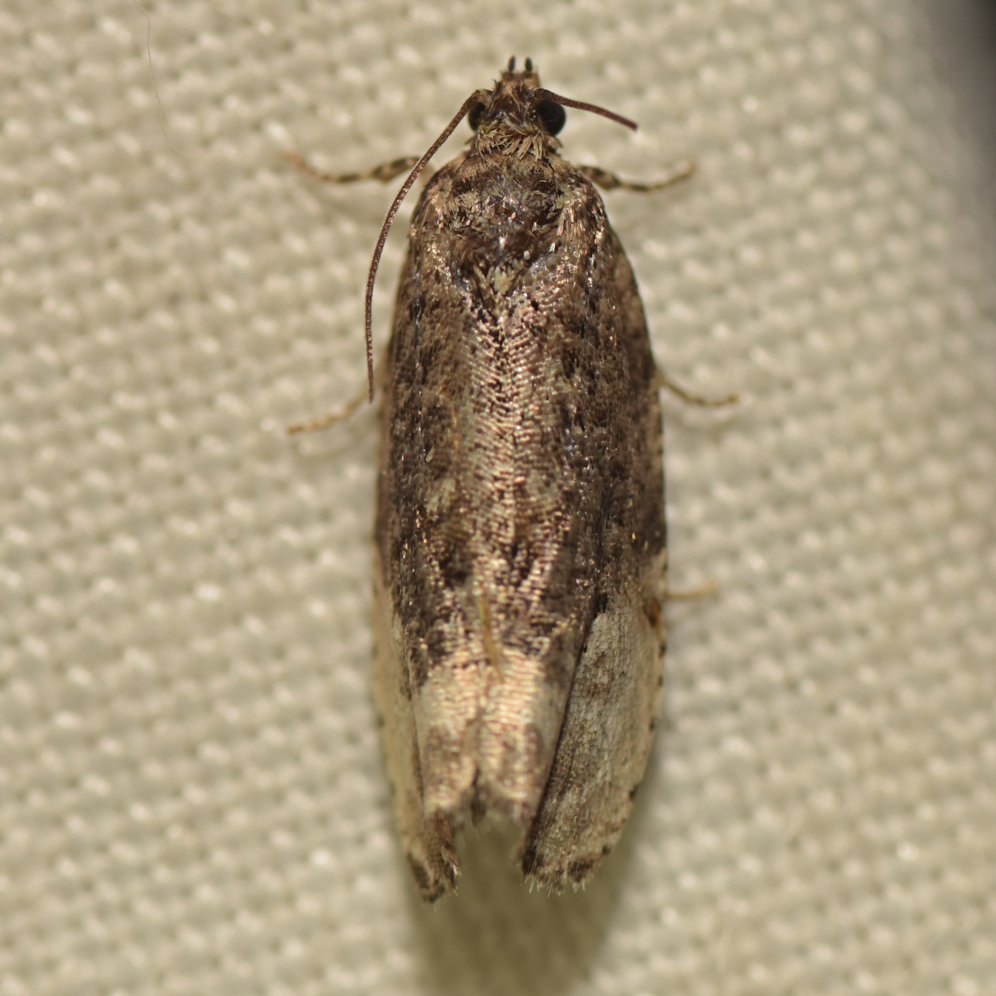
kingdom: Animalia
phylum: Arthropoda
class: Insecta
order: Lepidoptera
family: Tortricidae
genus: Hedya
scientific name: Hedya nubiferana
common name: Marbled orchard tortrix
